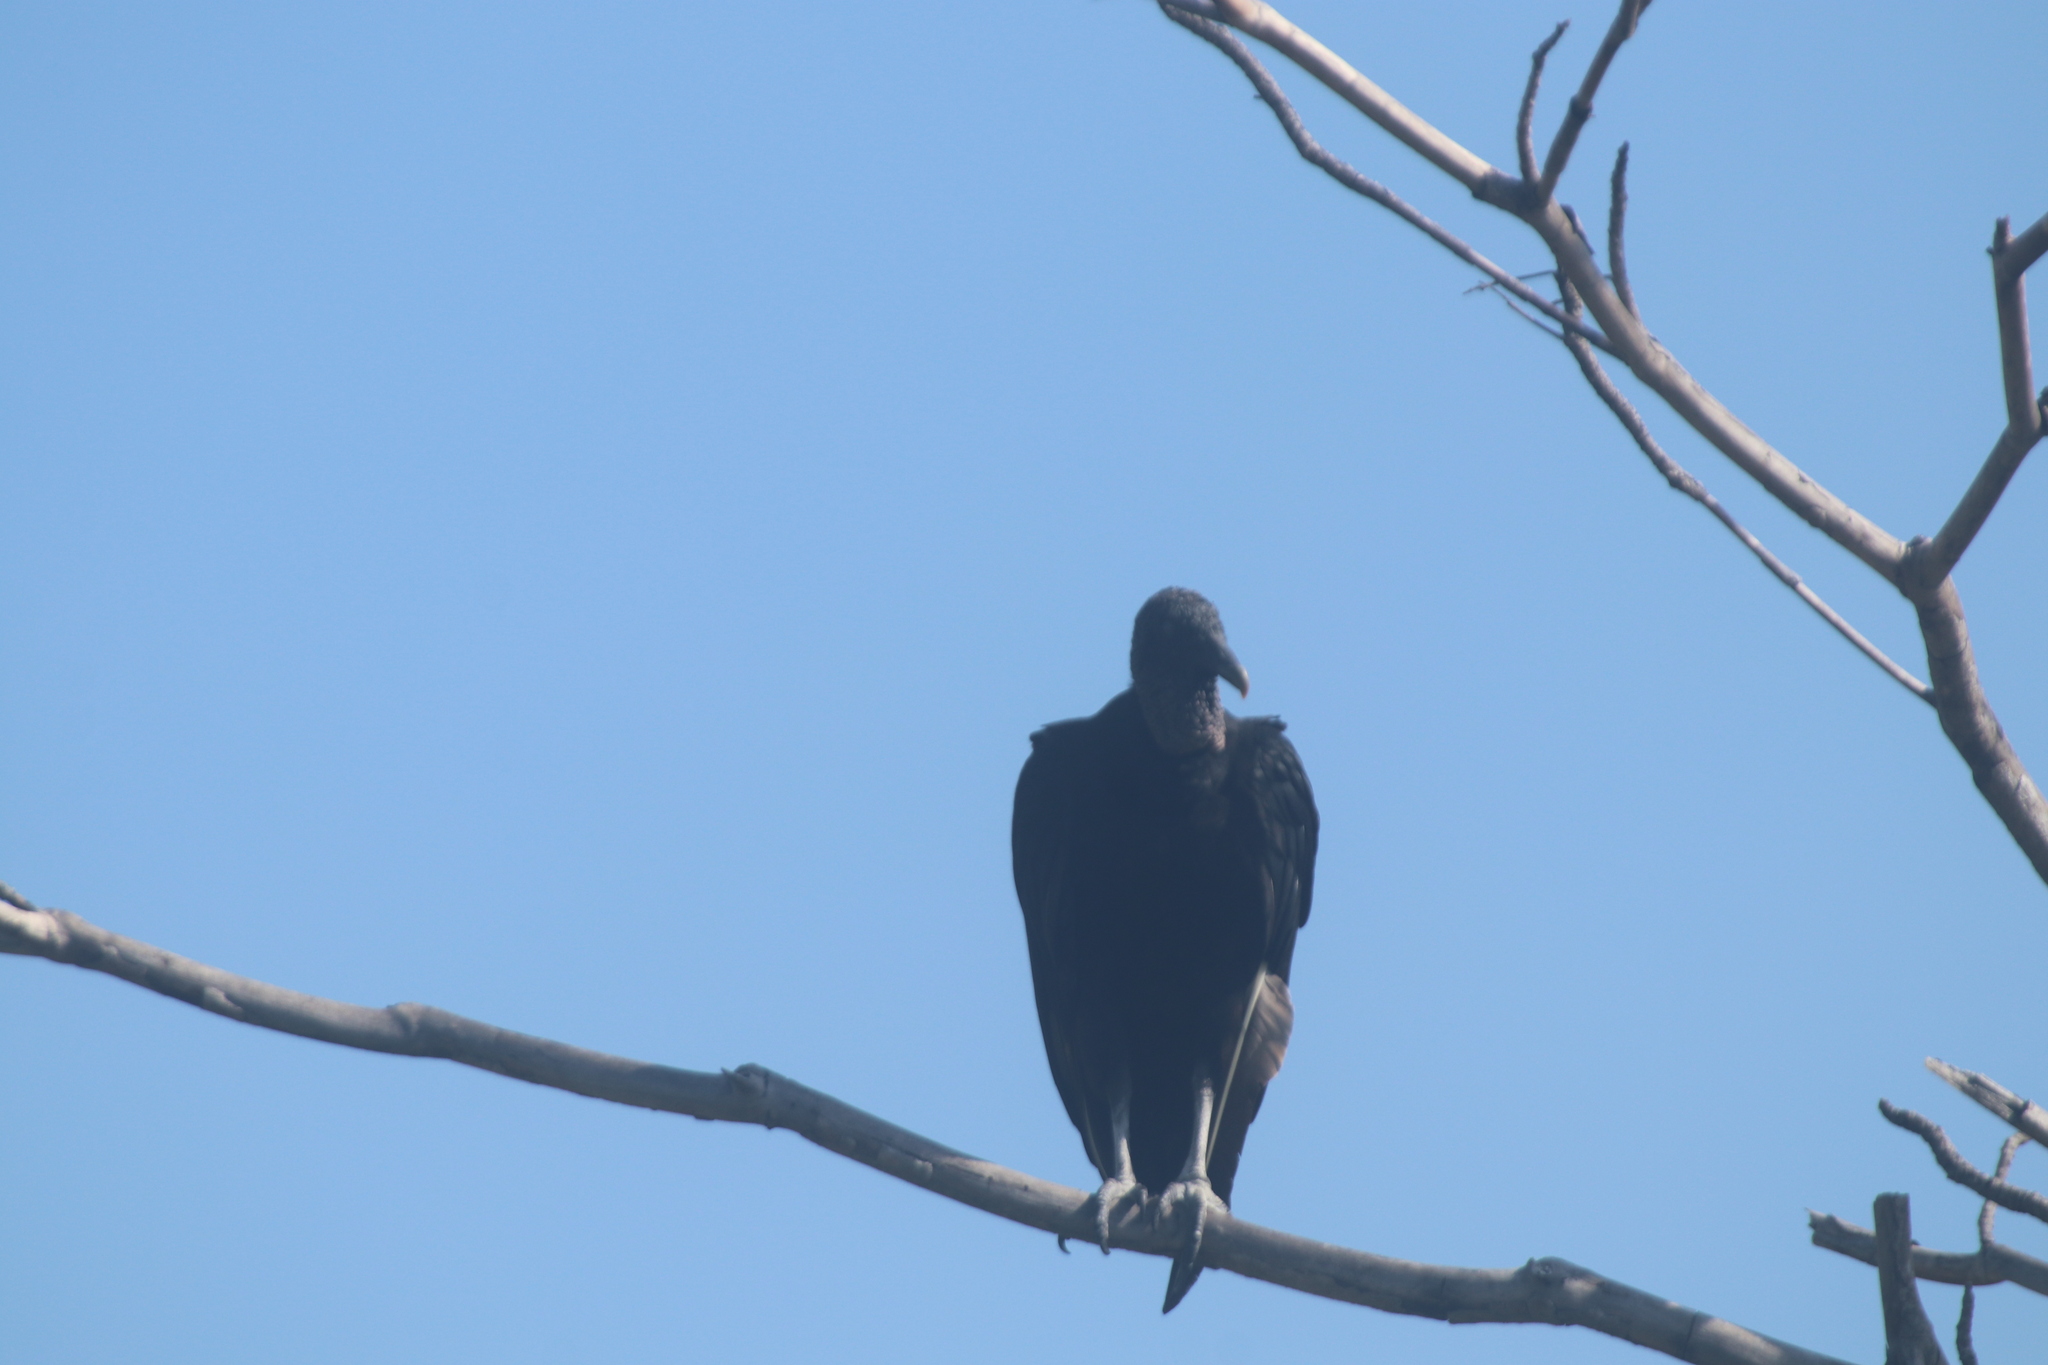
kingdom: Animalia
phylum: Chordata
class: Aves
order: Accipitriformes
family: Cathartidae
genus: Coragyps
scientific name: Coragyps atratus
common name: Black vulture
